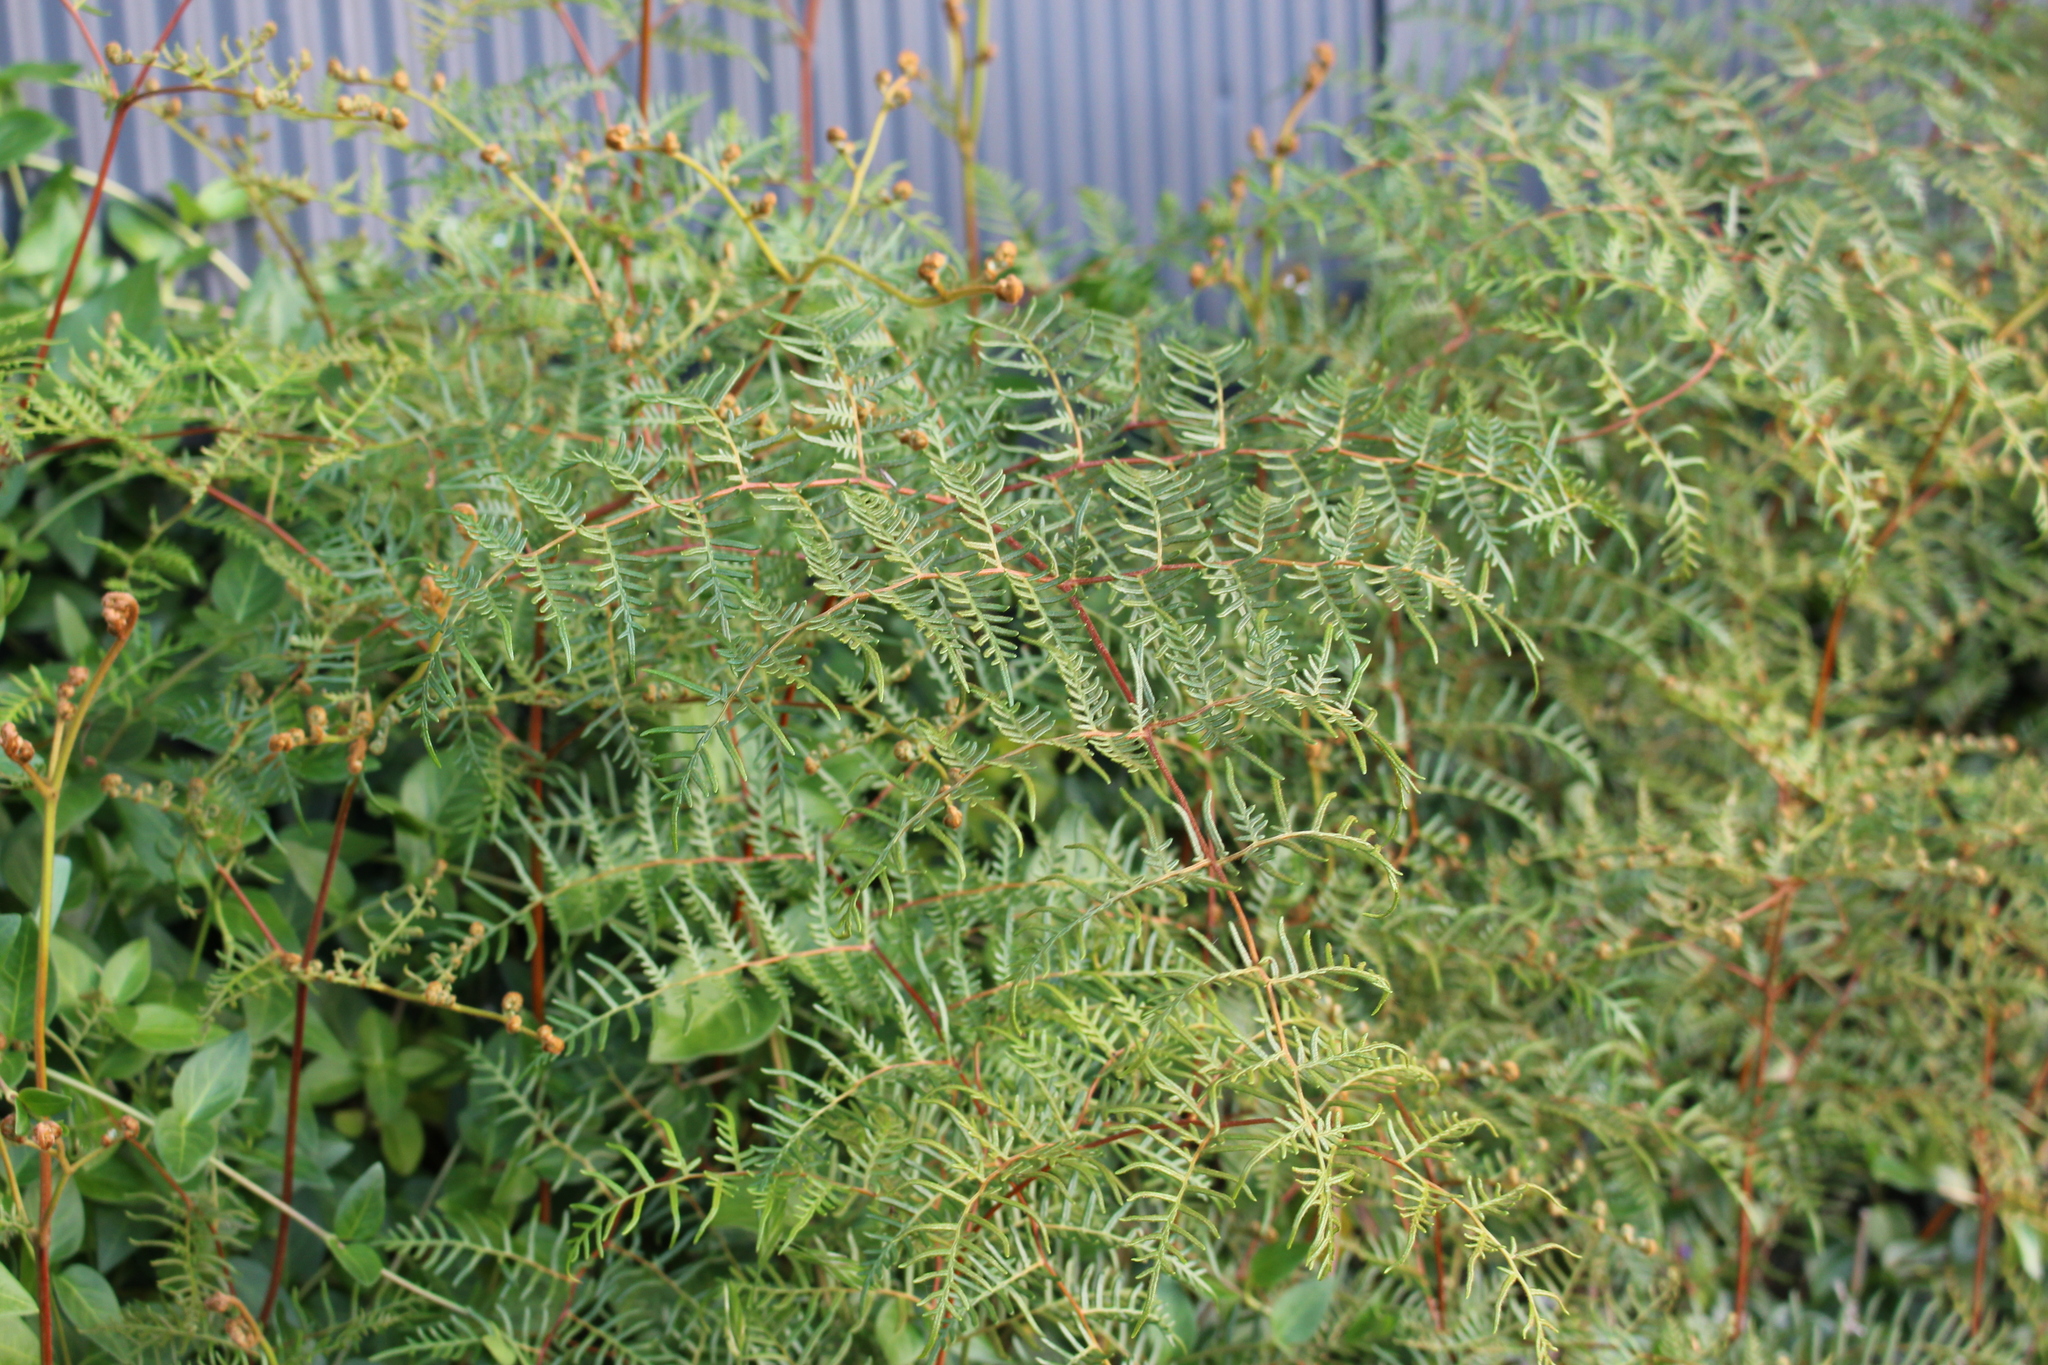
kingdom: Plantae
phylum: Tracheophyta
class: Polypodiopsida
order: Polypodiales
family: Dennstaedtiaceae
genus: Pteridium
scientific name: Pteridium esculentum
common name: Bracken fern
